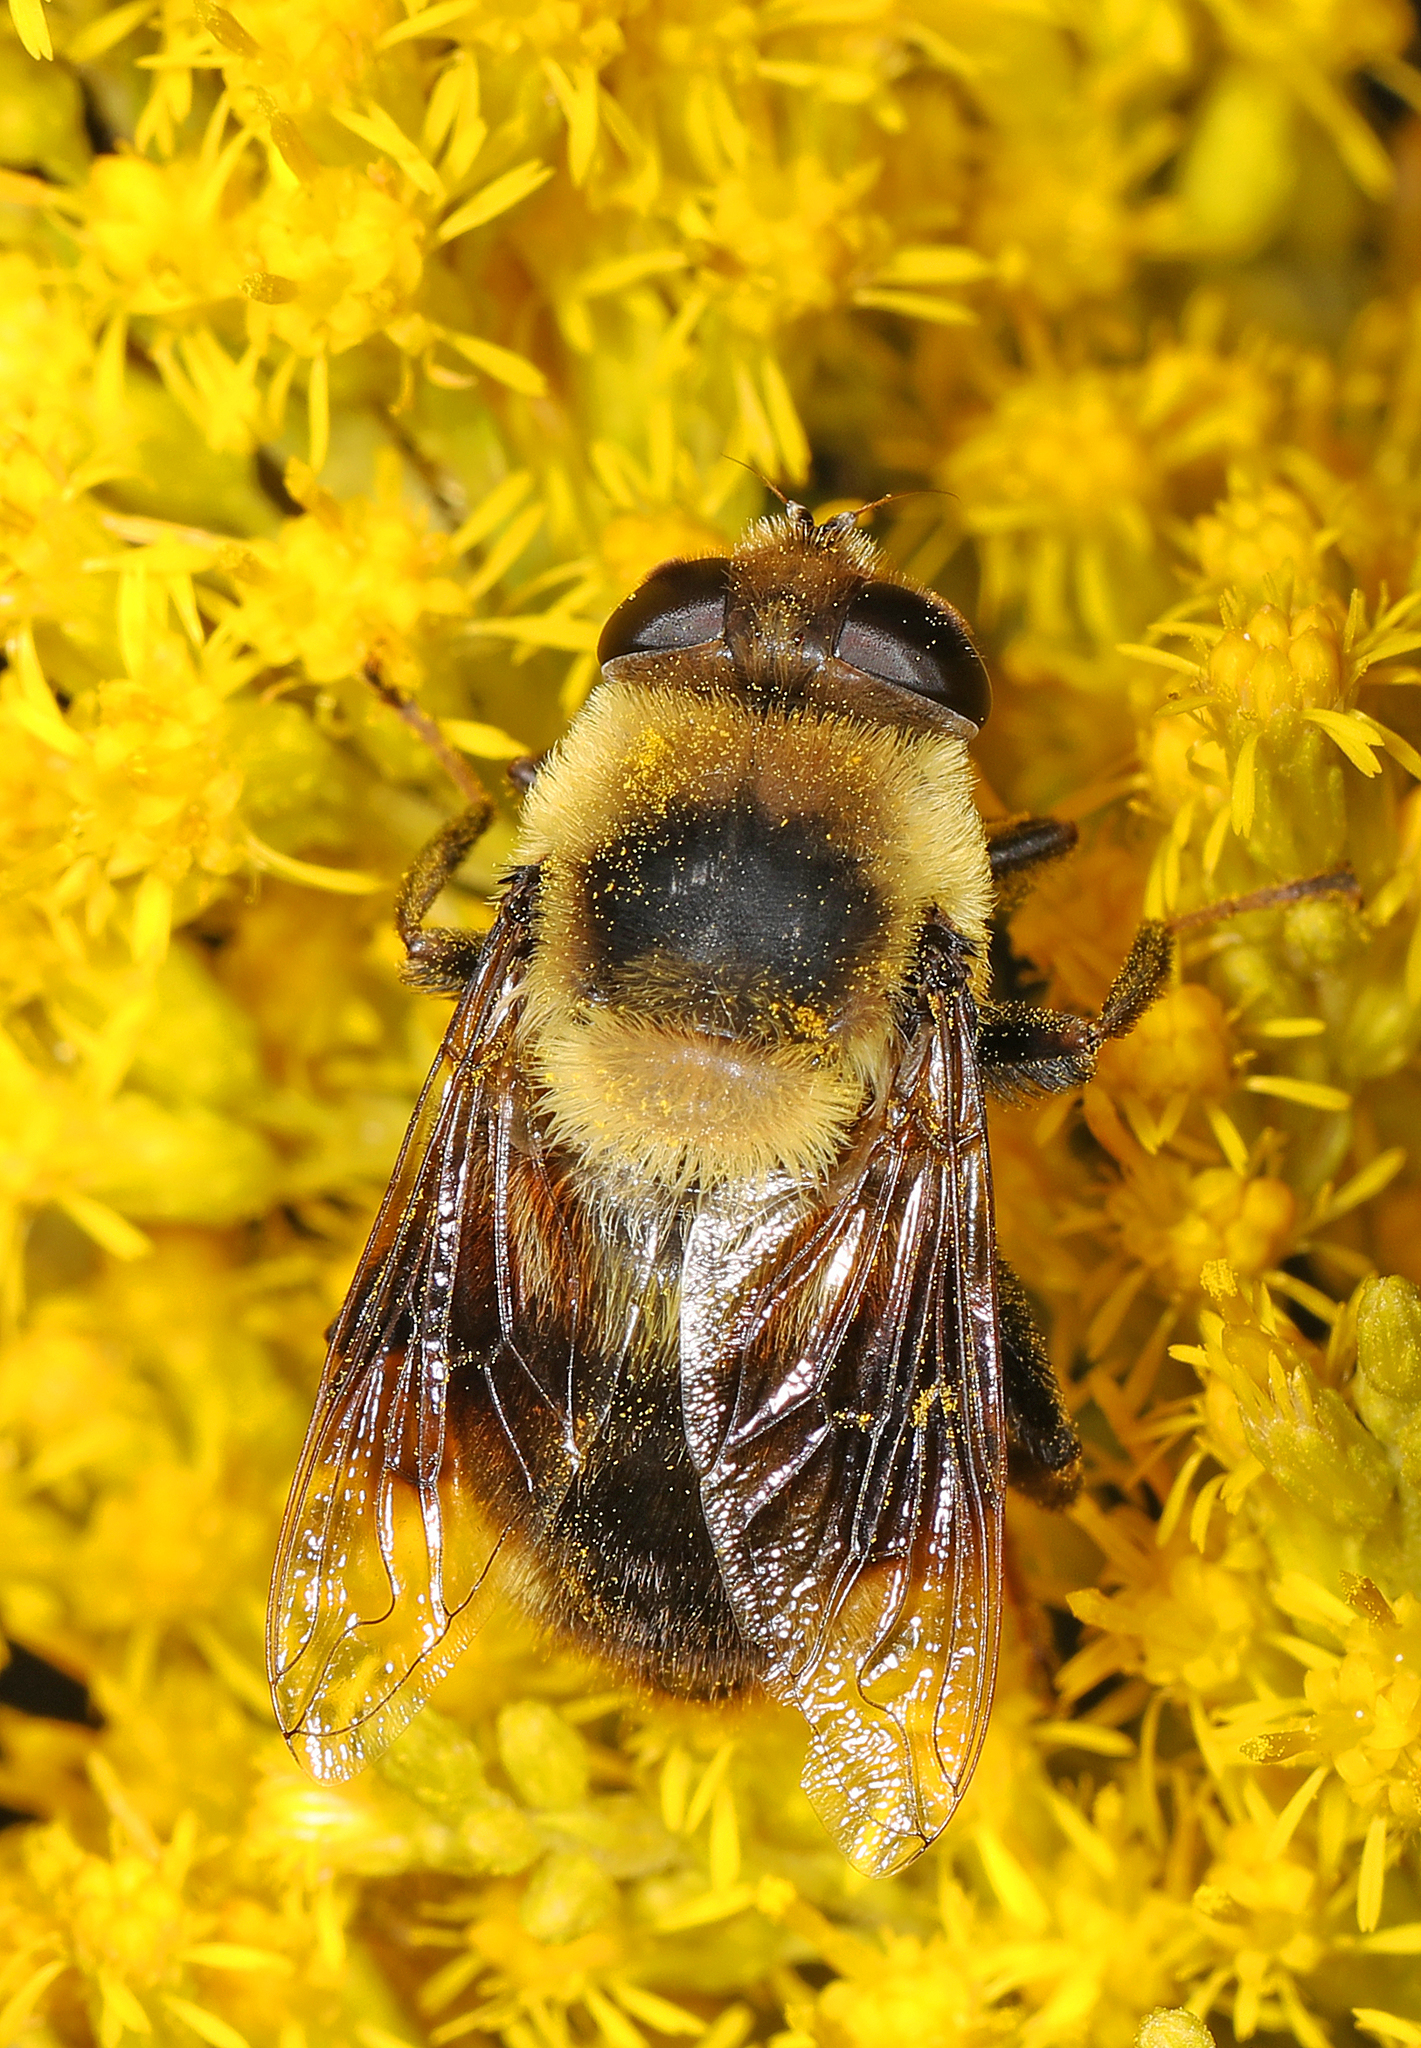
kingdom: Animalia
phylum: Arthropoda
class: Insecta
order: Diptera
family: Syrphidae
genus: Eristalis
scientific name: Eristalis flavipes
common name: Orange-legged drone fly
